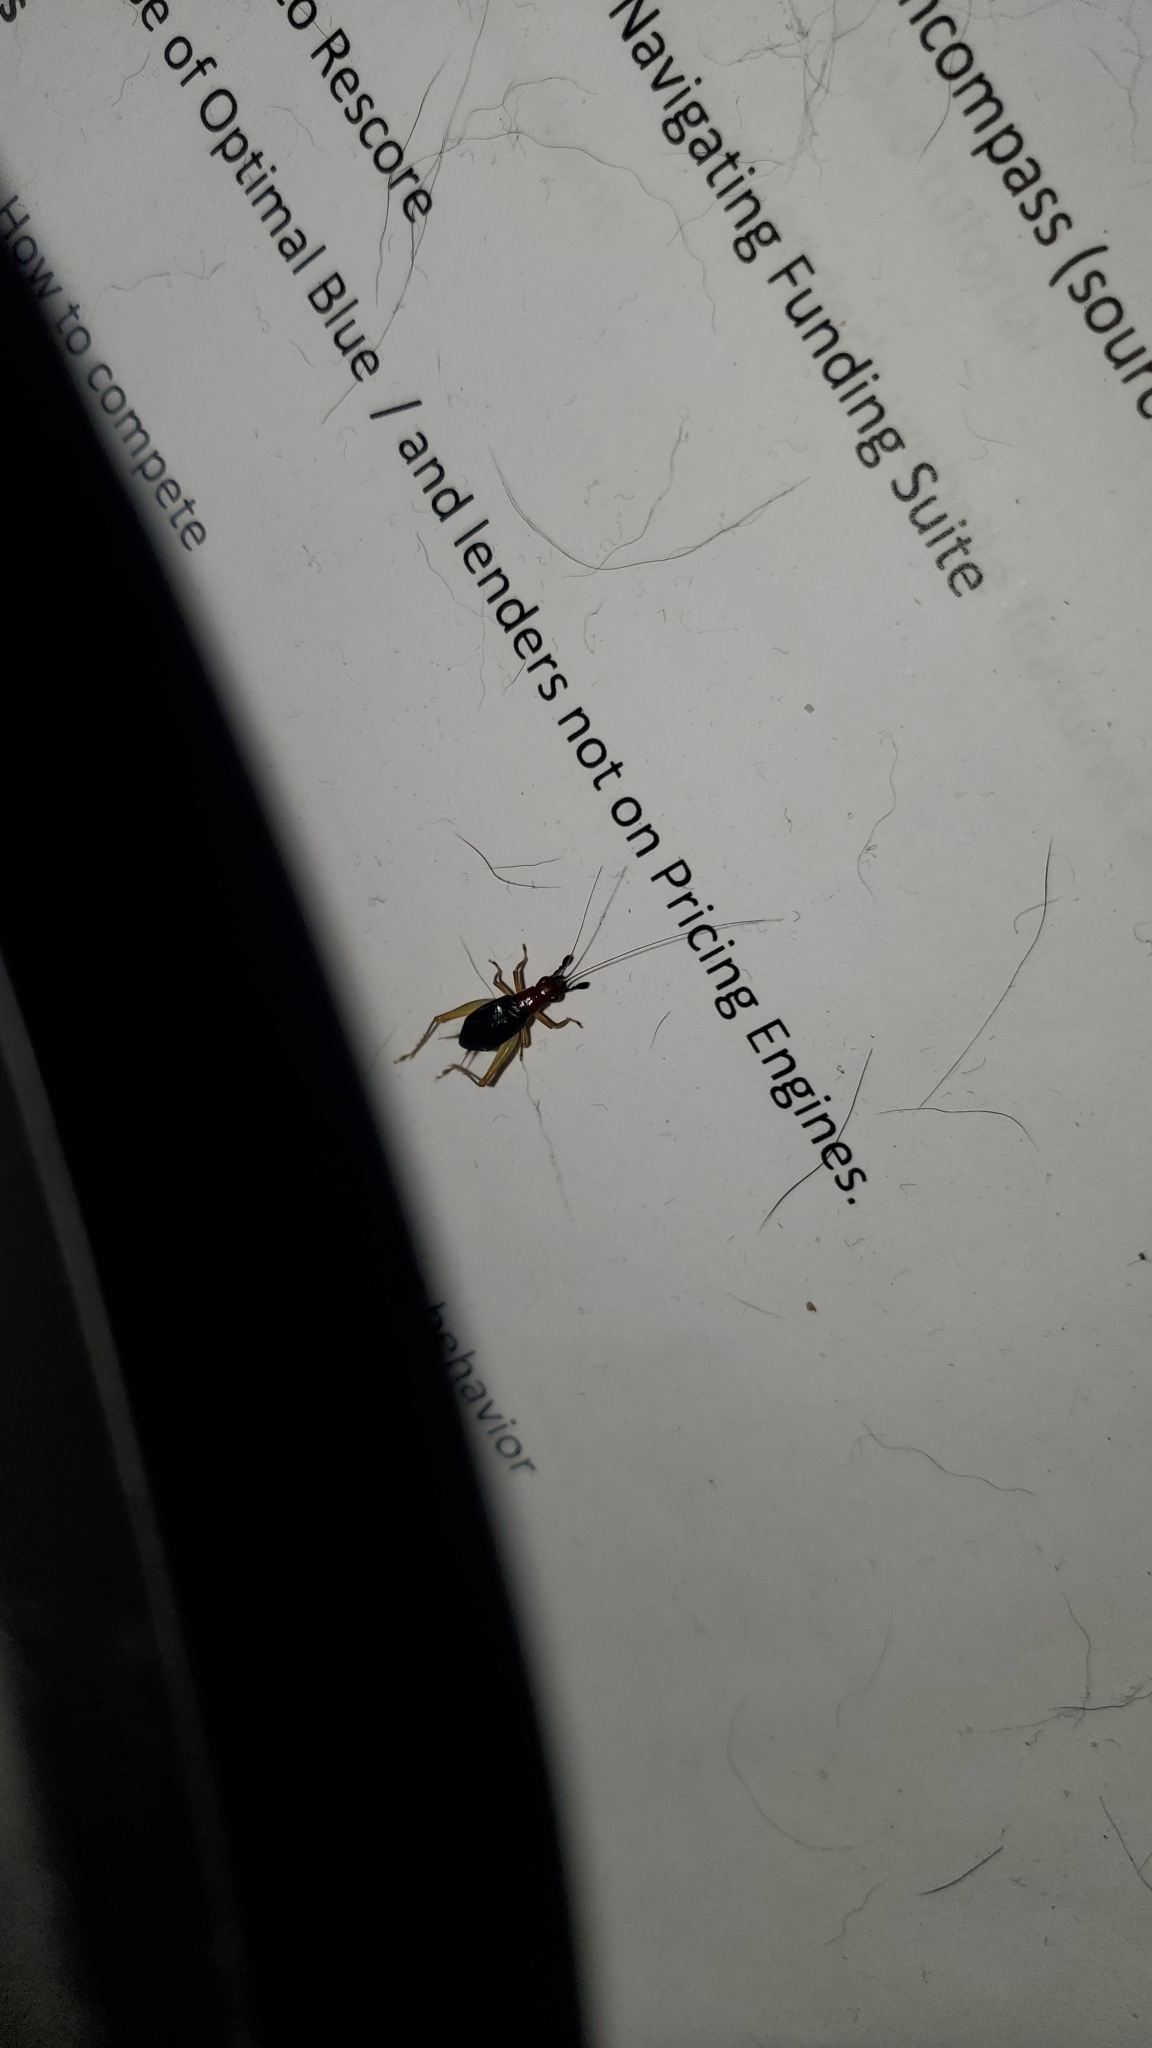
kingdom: Animalia
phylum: Arthropoda
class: Insecta
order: Orthoptera
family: Trigonidiidae
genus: Phyllopalpus
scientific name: Phyllopalpus pulchellus
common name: Handsome trig
